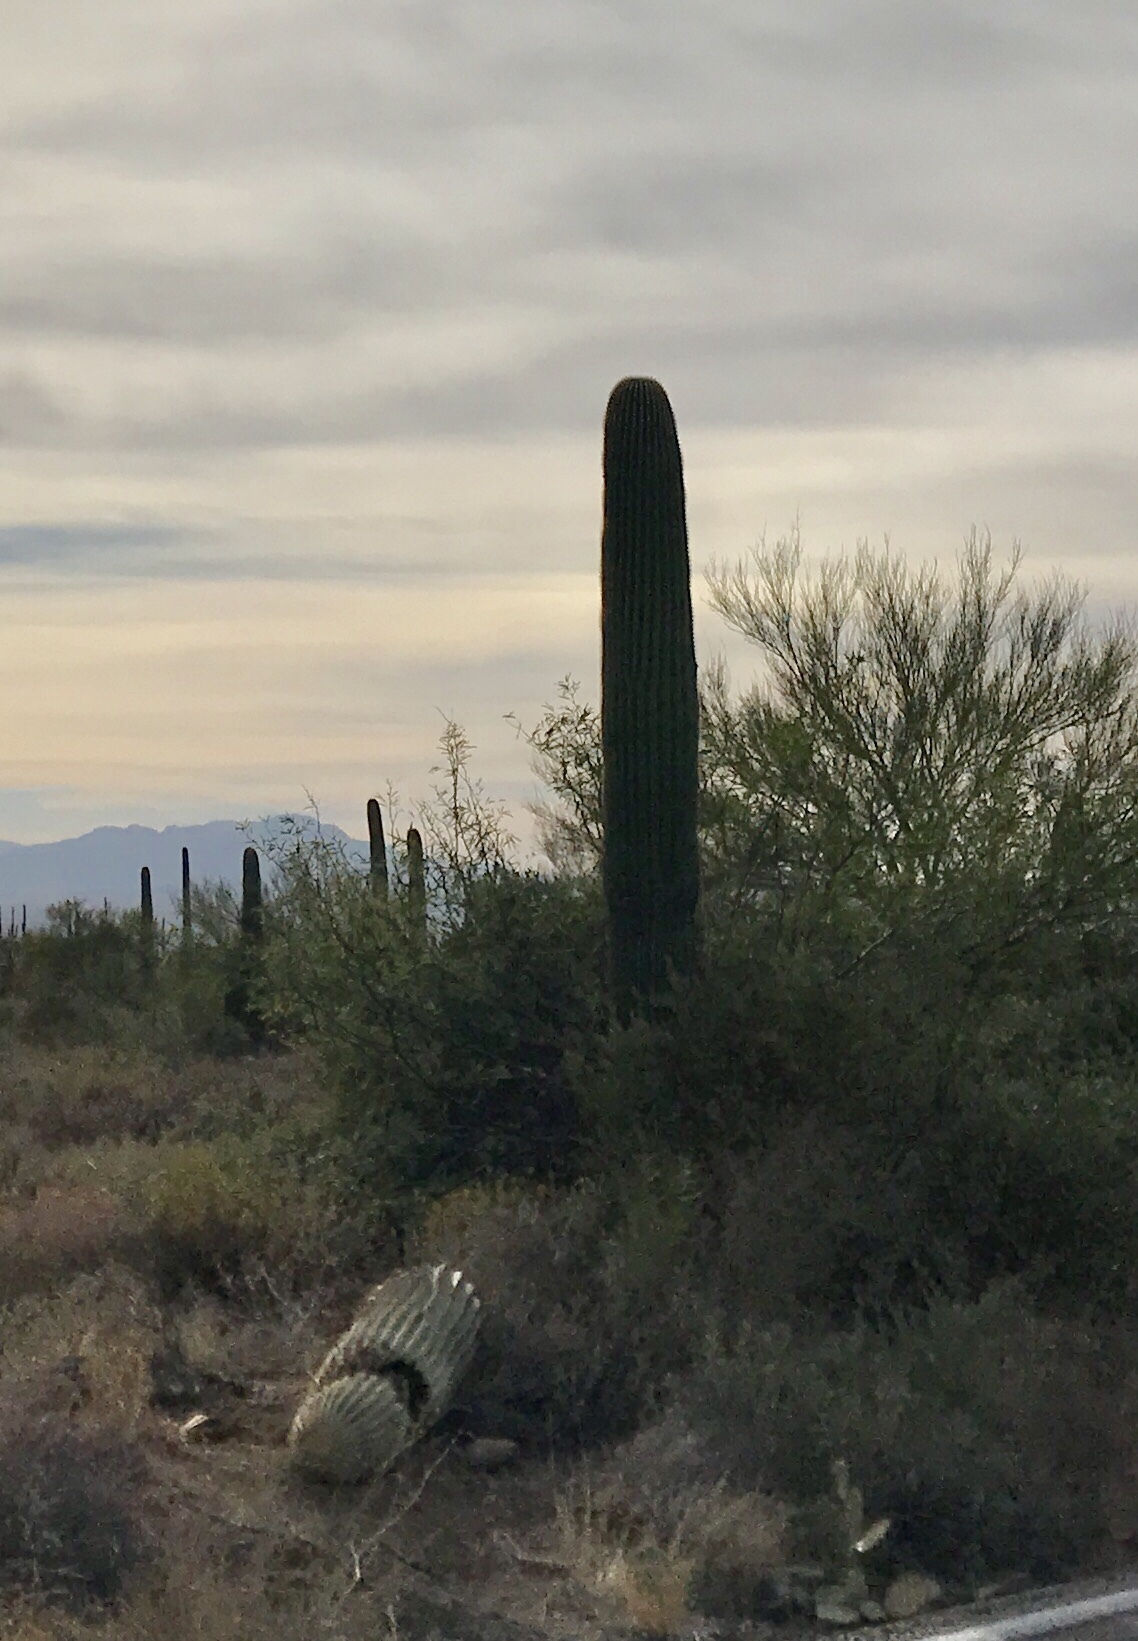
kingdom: Plantae
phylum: Tracheophyta
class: Magnoliopsida
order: Caryophyllales
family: Cactaceae
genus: Carnegiea
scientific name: Carnegiea gigantea
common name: Saguaro
